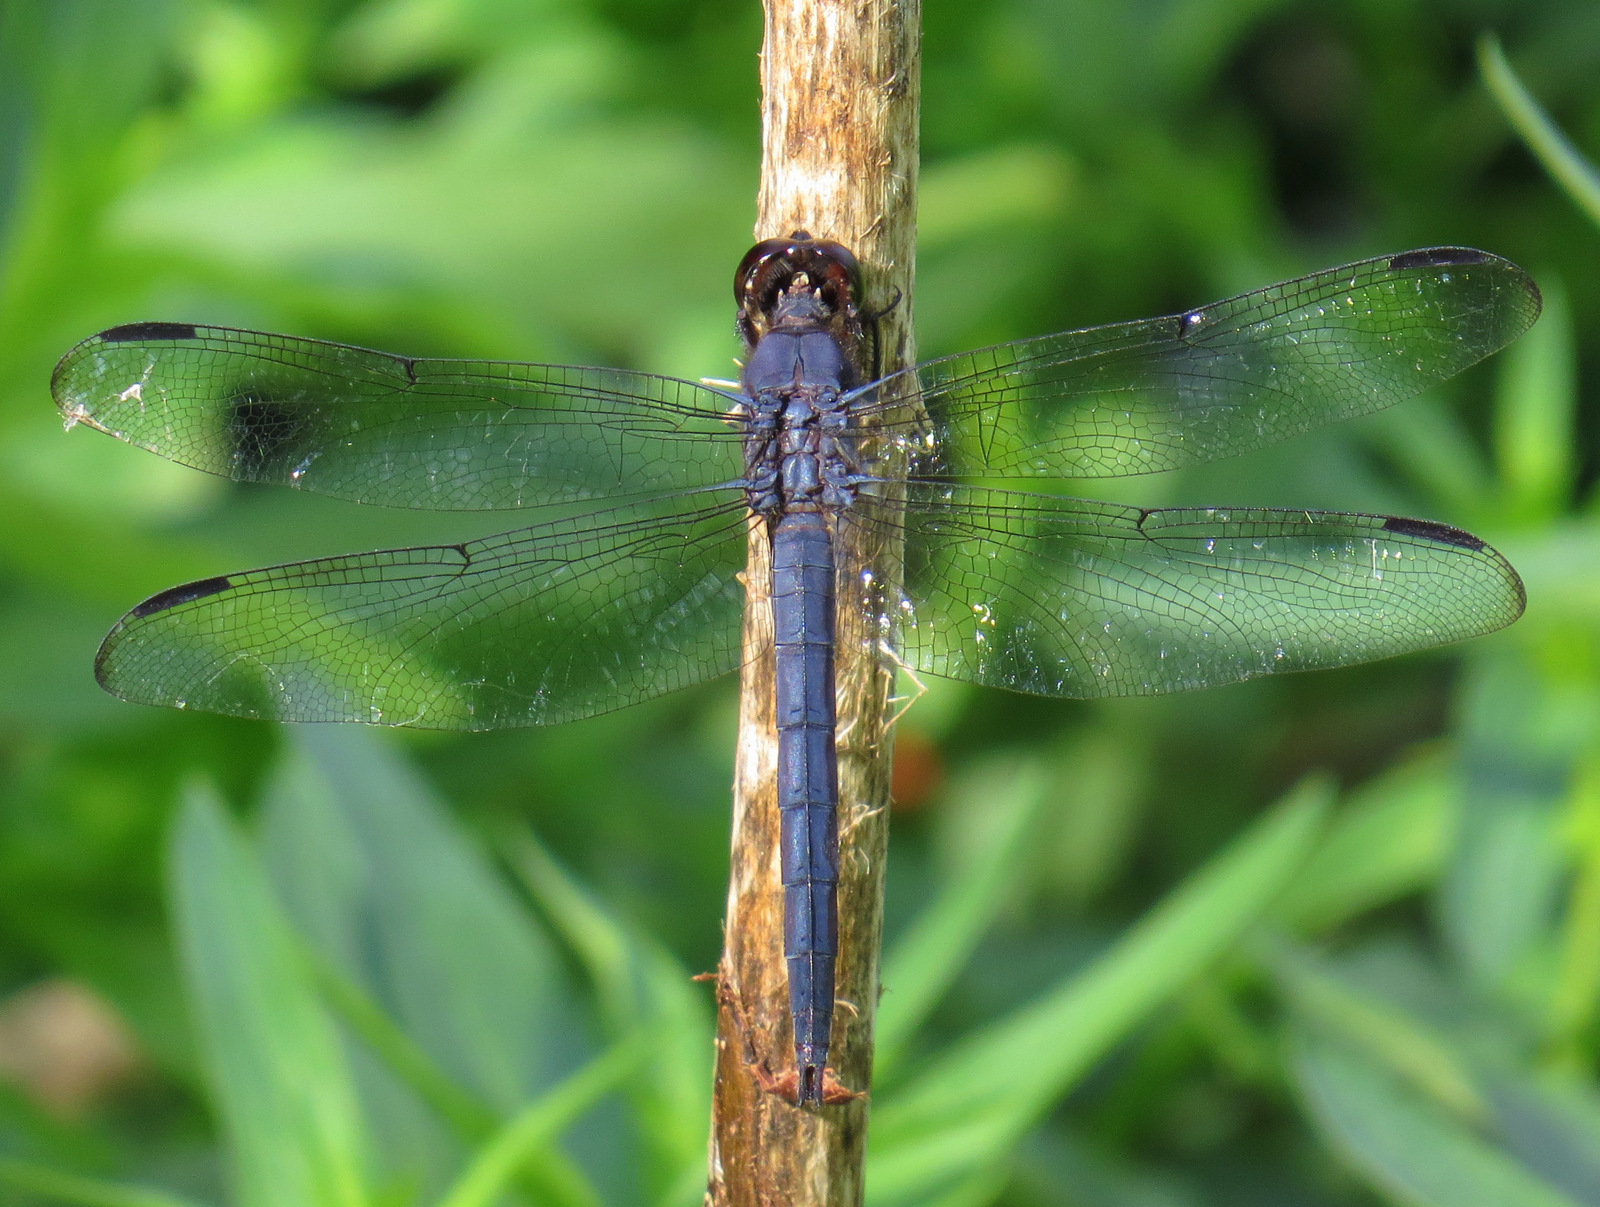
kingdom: Animalia
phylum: Arthropoda
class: Insecta
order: Odonata
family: Libellulidae
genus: Libellula
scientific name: Libellula incesta
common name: Slaty skimmer
